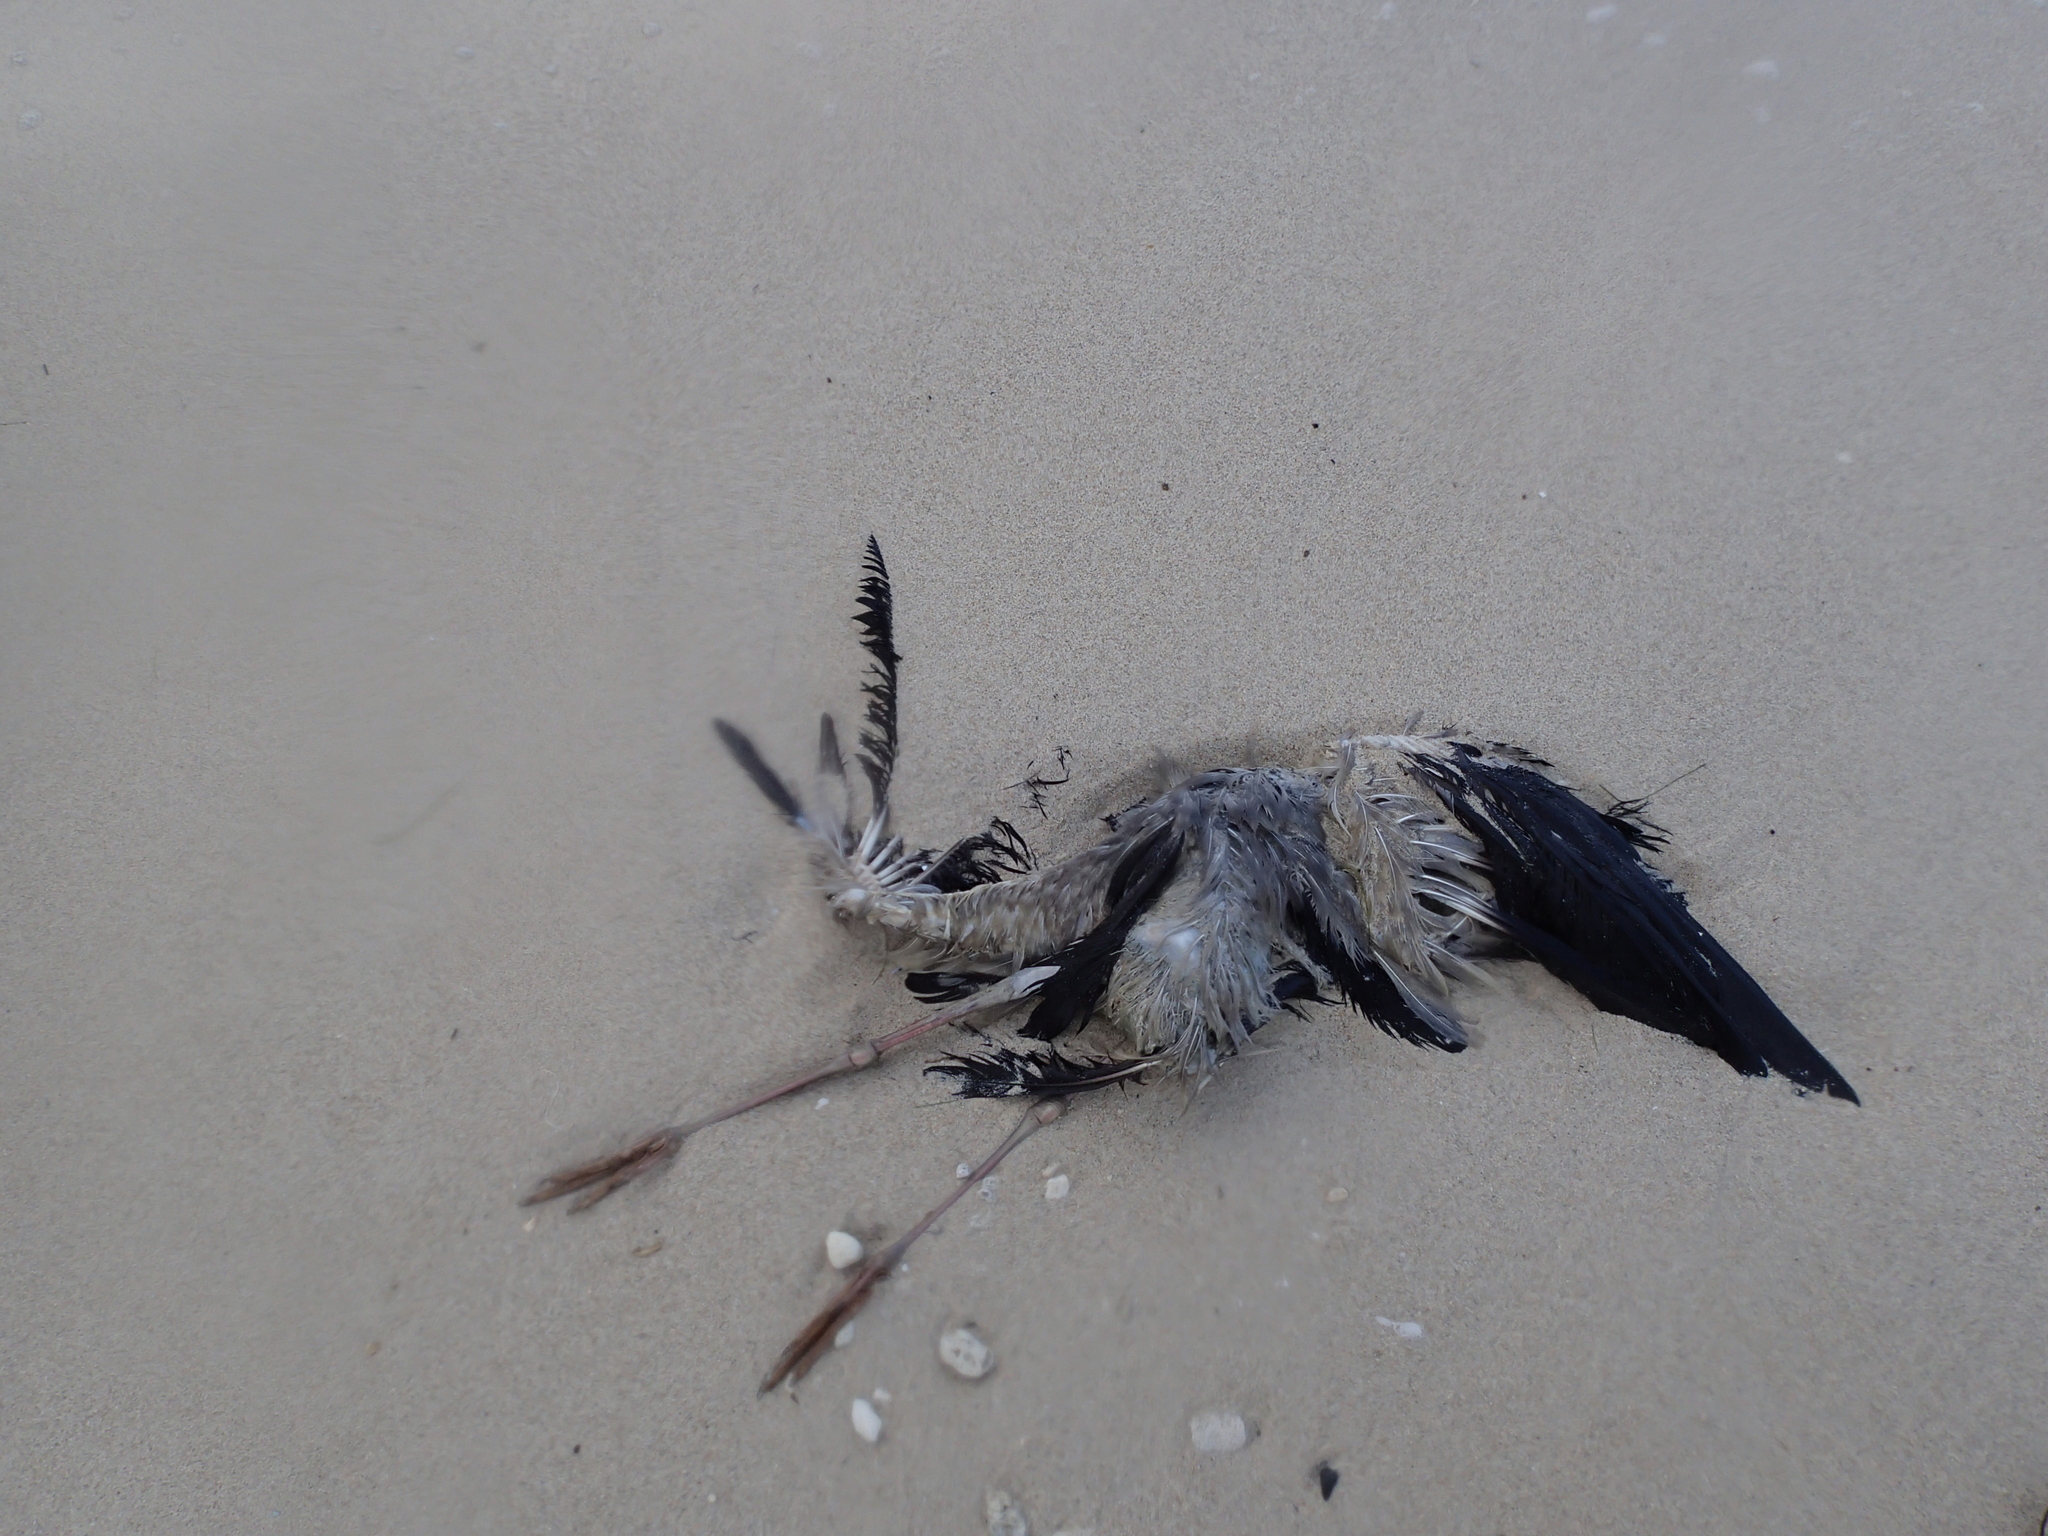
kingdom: Animalia
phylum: Chordata
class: Aves
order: Ciconiiformes
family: Ciconiidae
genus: Anastomus
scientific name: Anastomus oscitans
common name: Asian openbill
